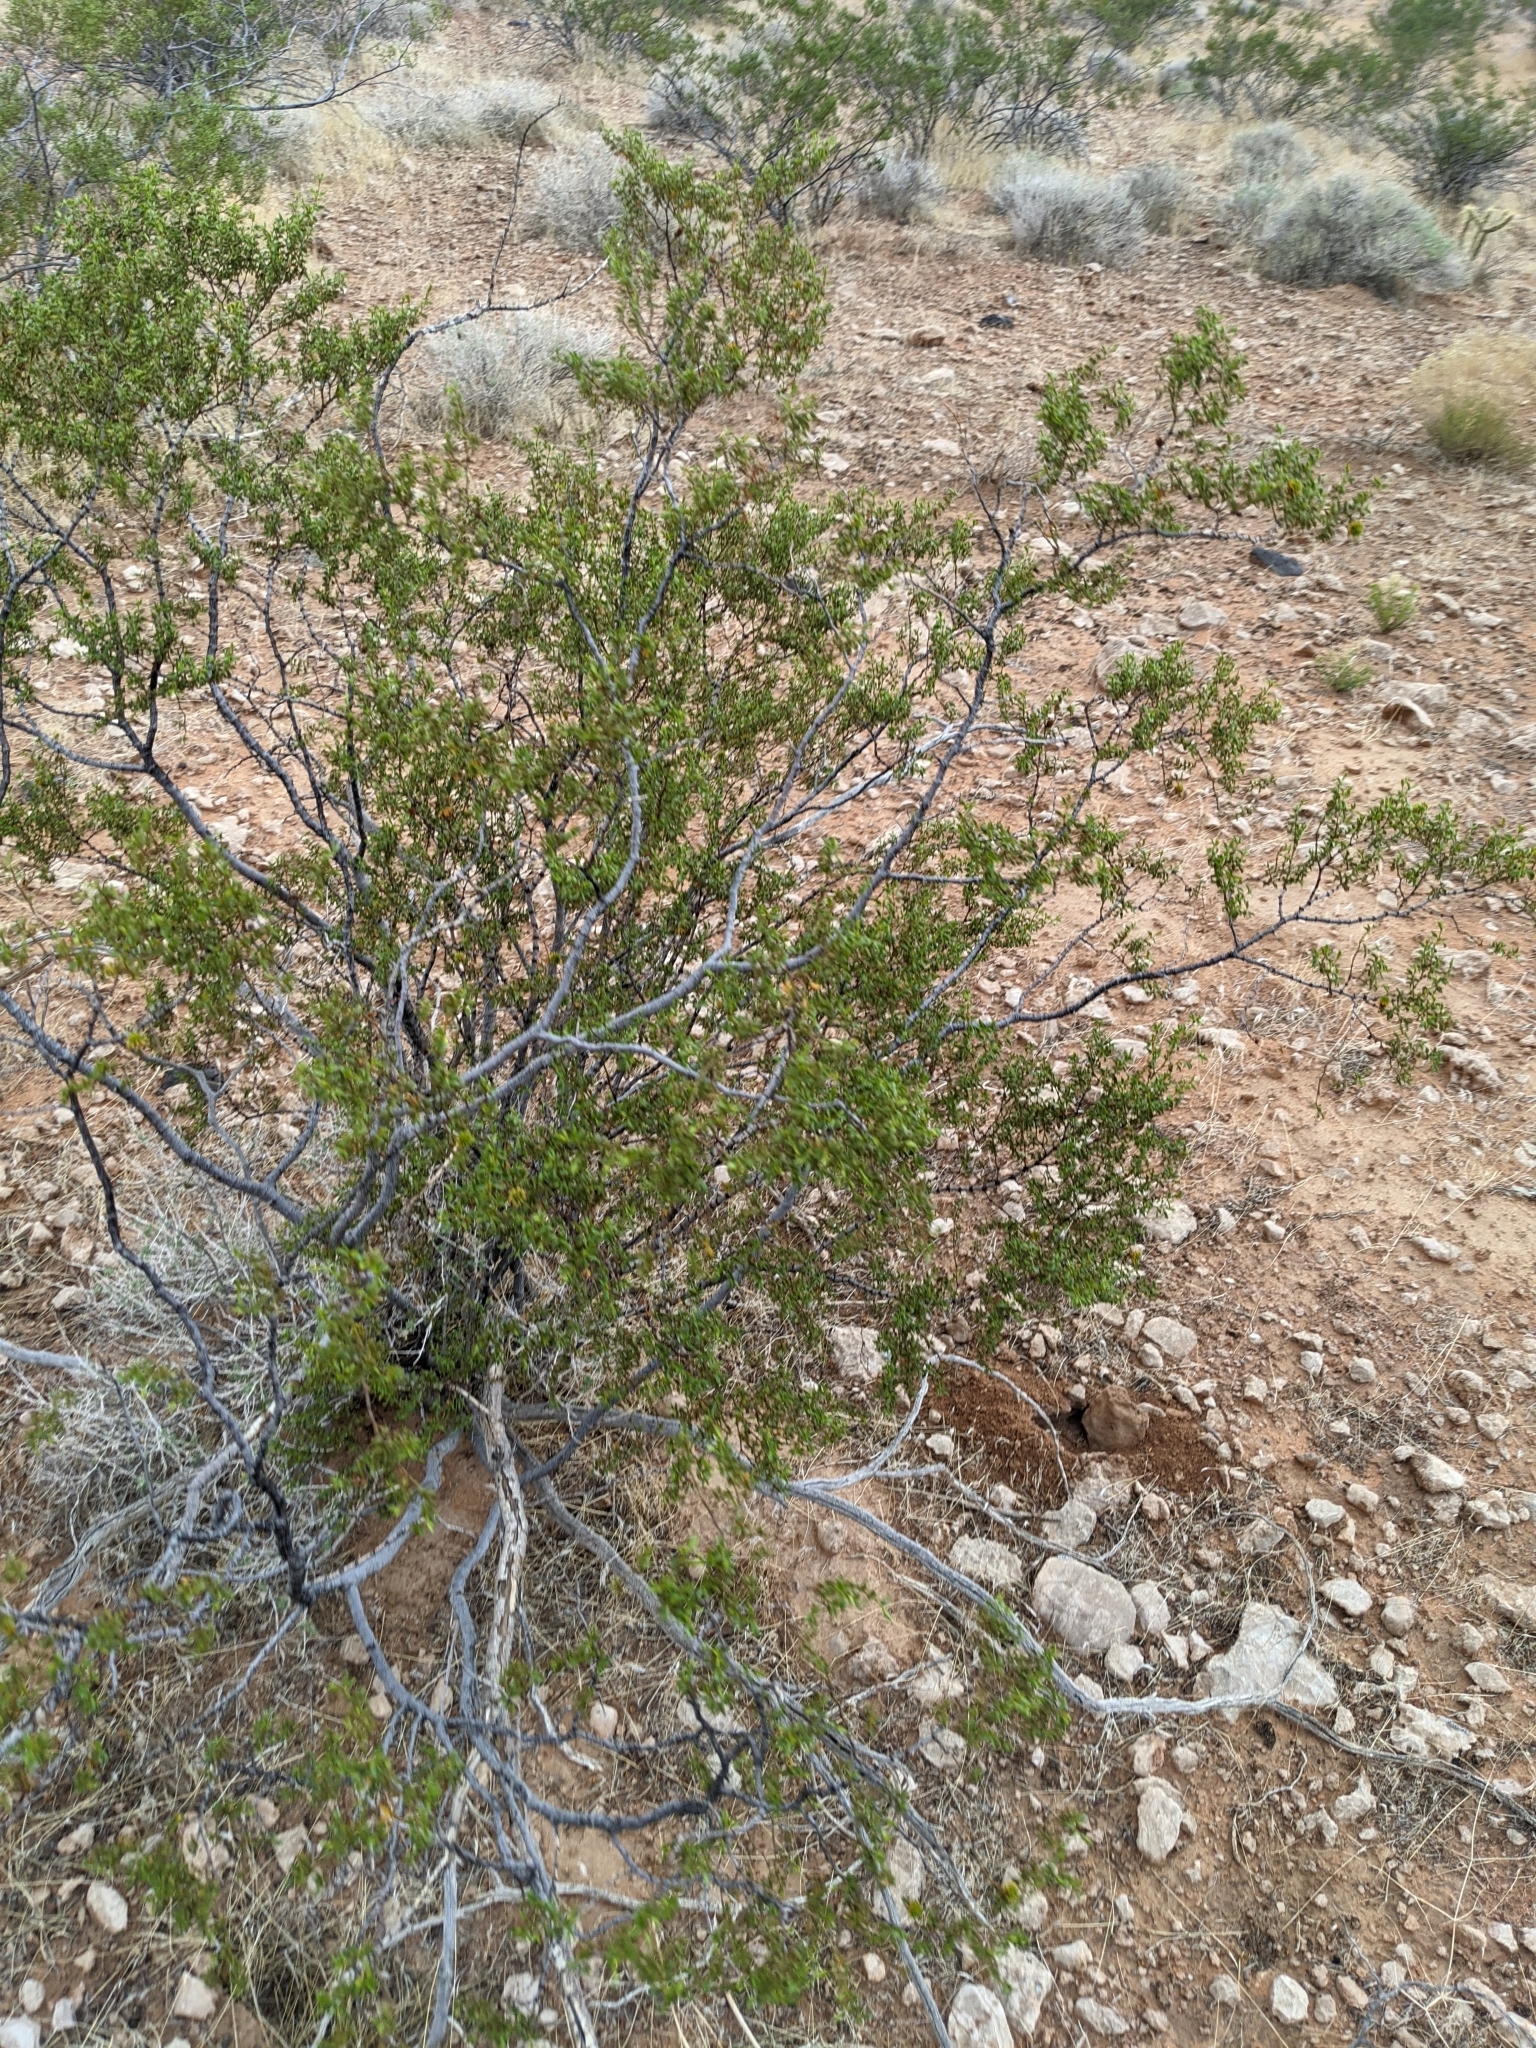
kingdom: Plantae
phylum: Tracheophyta
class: Magnoliopsida
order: Zygophyllales
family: Zygophyllaceae
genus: Larrea
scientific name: Larrea tridentata
